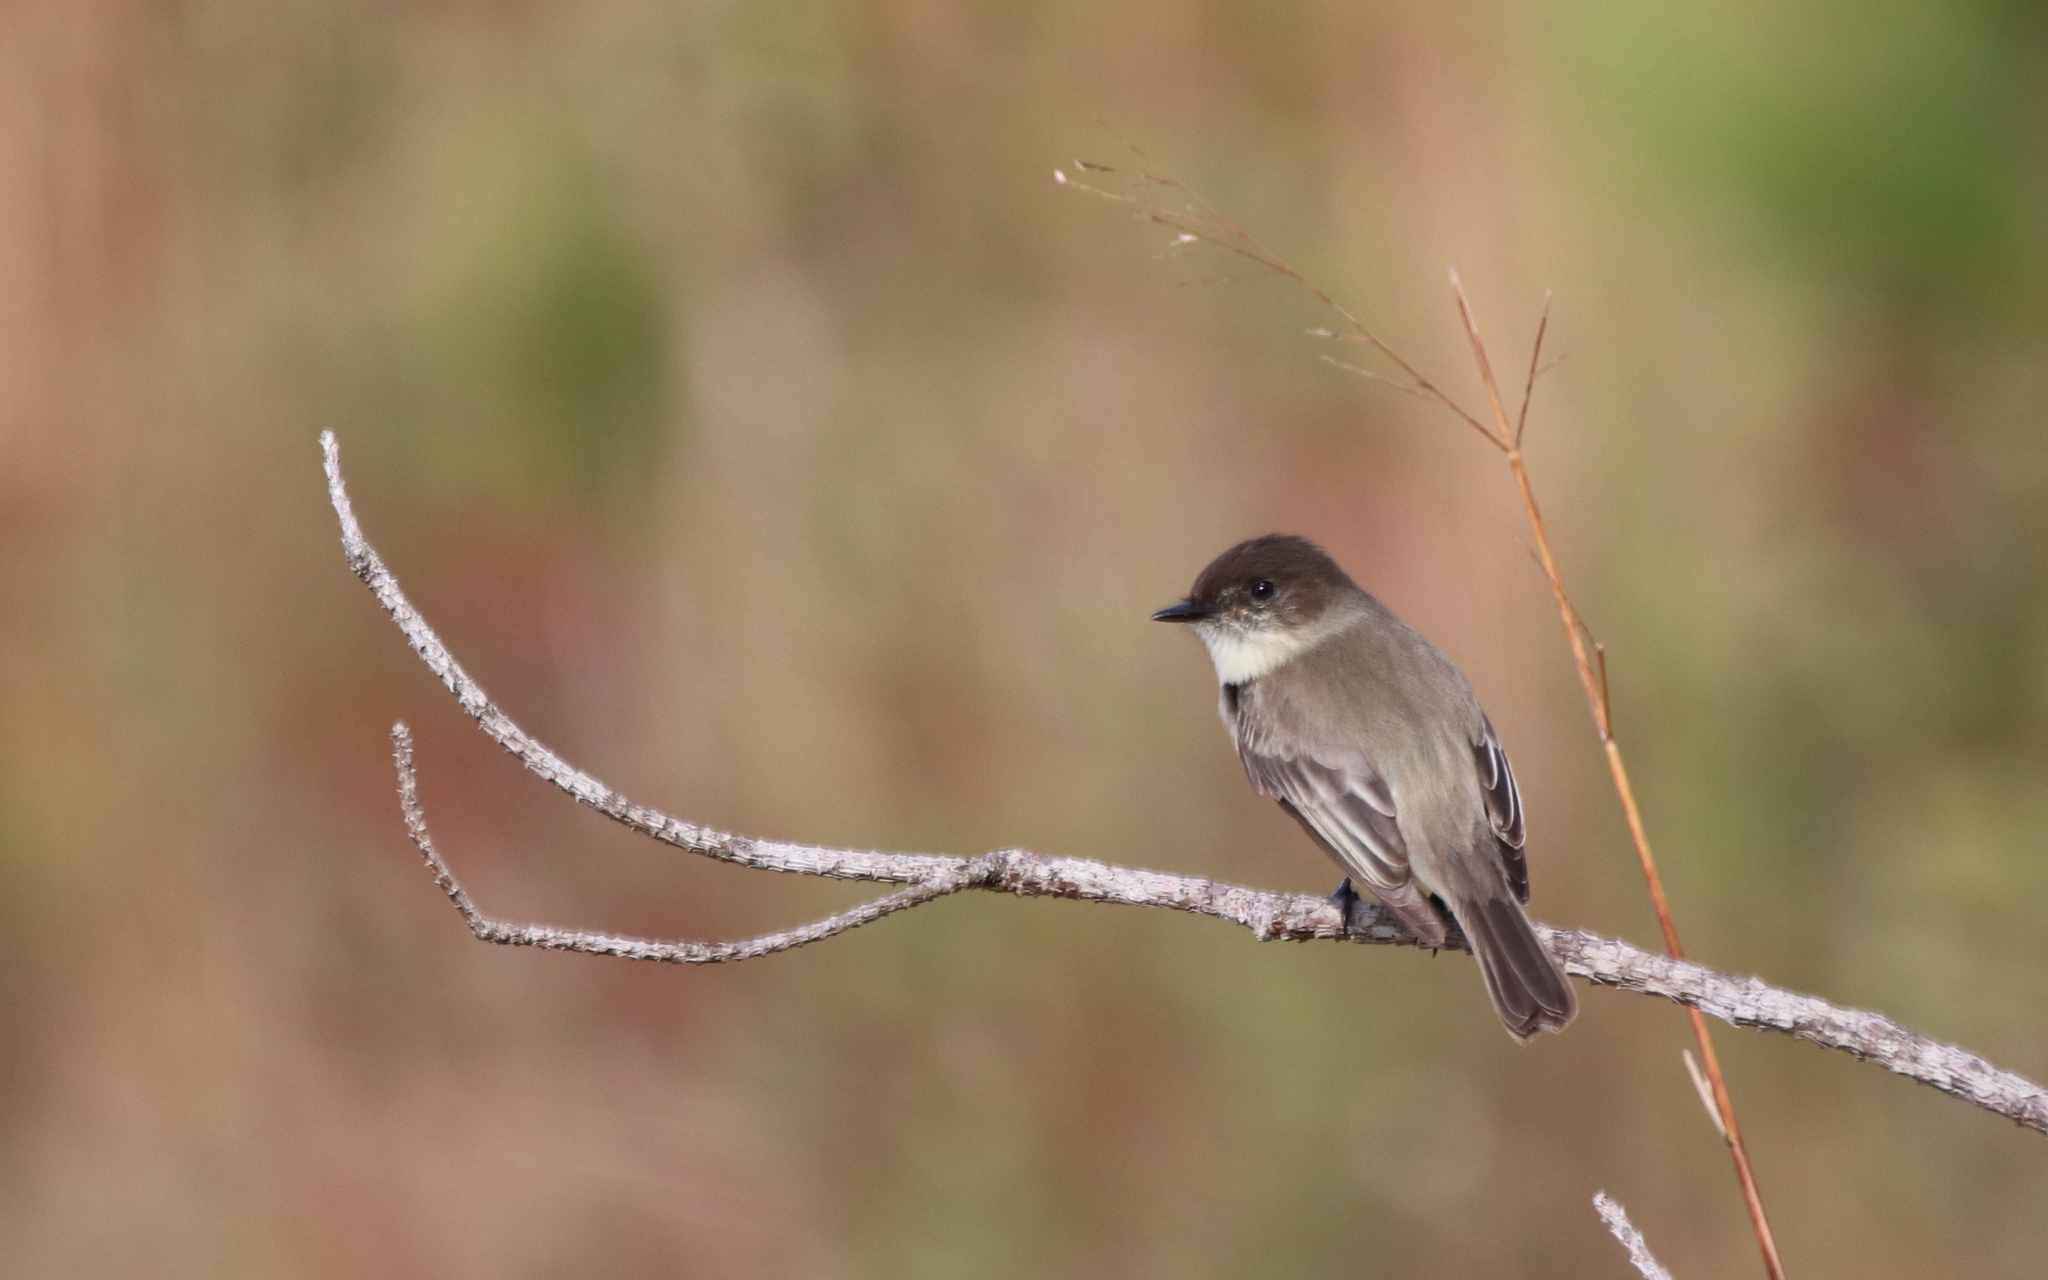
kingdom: Animalia
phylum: Chordata
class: Aves
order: Passeriformes
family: Tyrannidae
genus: Sayornis
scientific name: Sayornis phoebe
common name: Eastern phoebe
